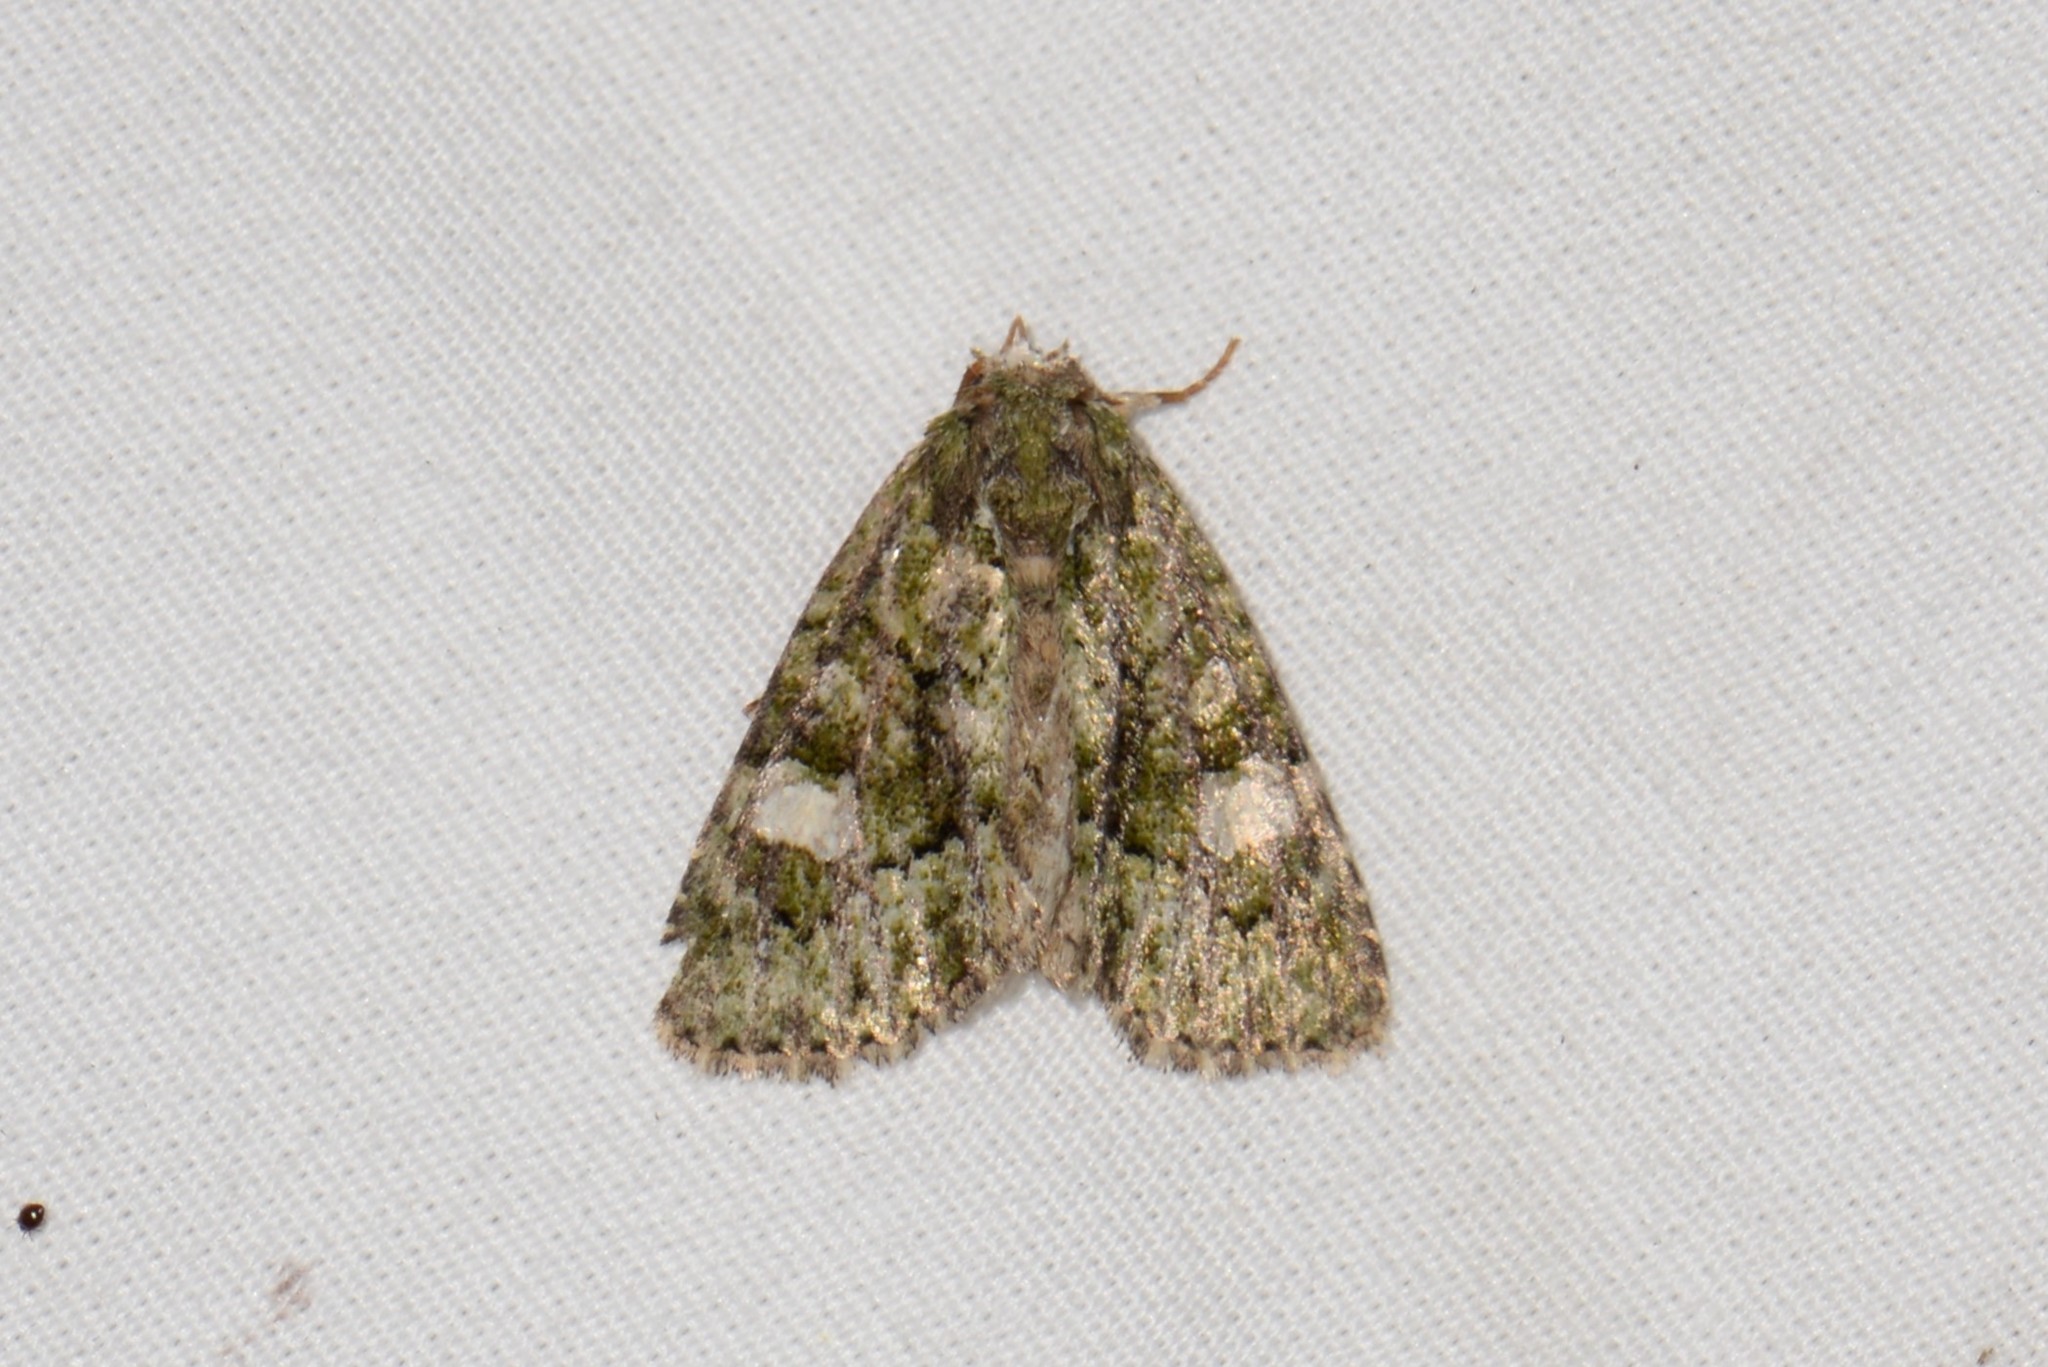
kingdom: Animalia
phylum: Arthropoda
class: Insecta
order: Lepidoptera
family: Noctuidae
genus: Phosphila
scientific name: Phosphila miselioides
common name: Spotted phosphila moth
